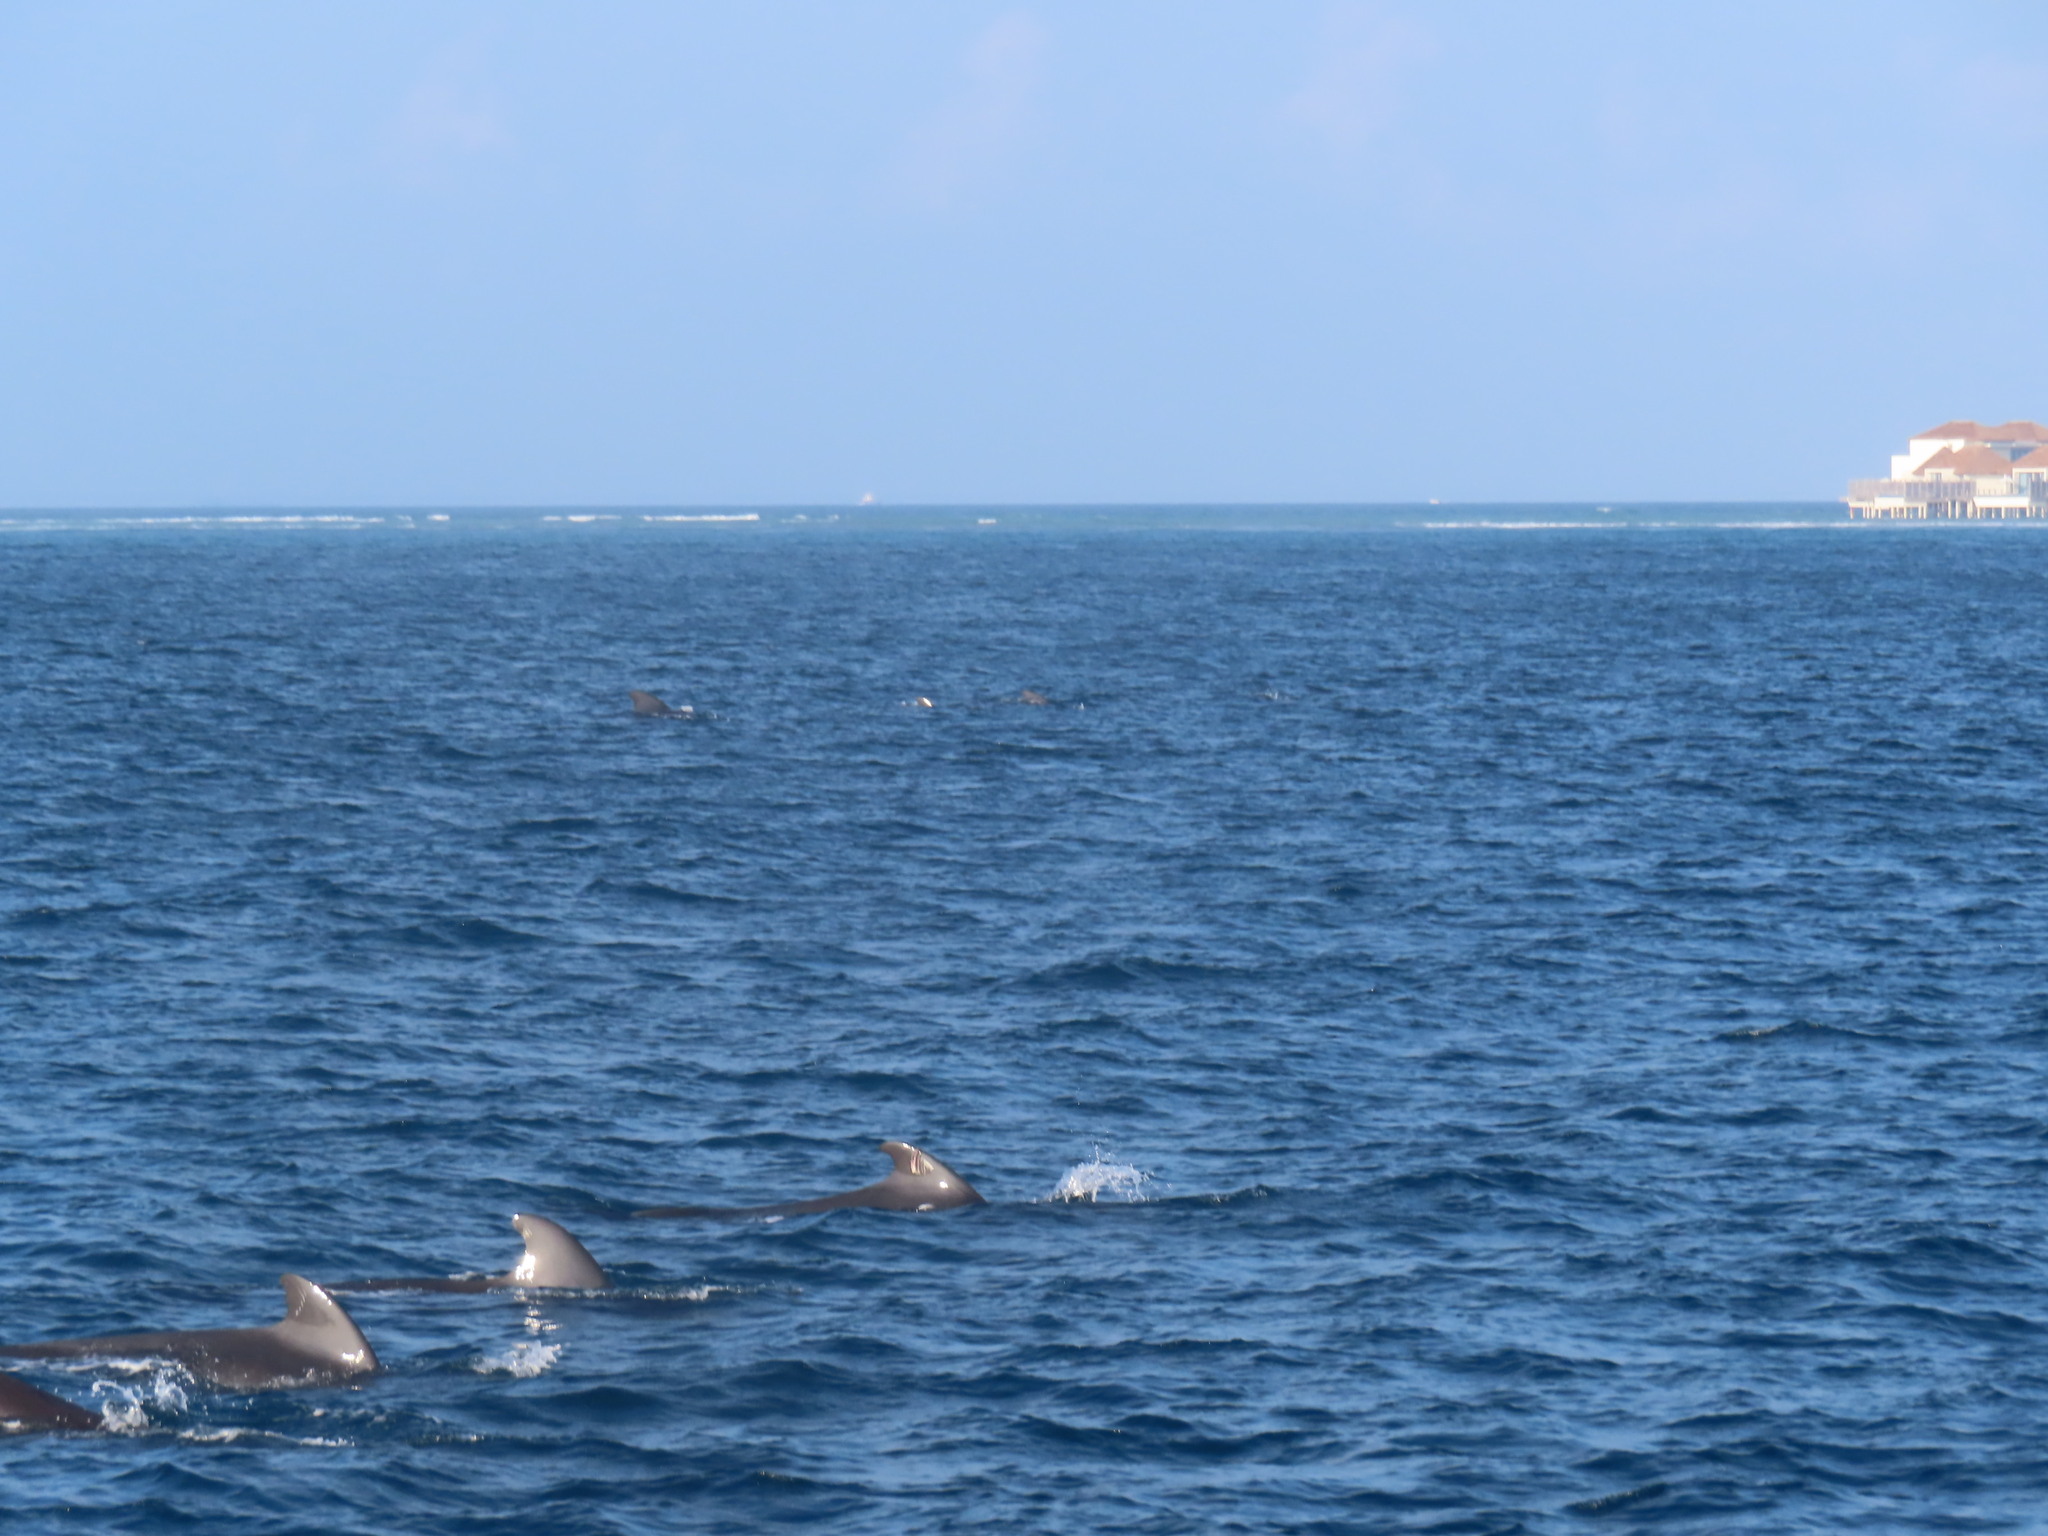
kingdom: Animalia
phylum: Chordata
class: Mammalia
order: Cetacea
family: Delphinidae
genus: Globicephala
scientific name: Globicephala macrorhynchus
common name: Short-finned pilot whale
